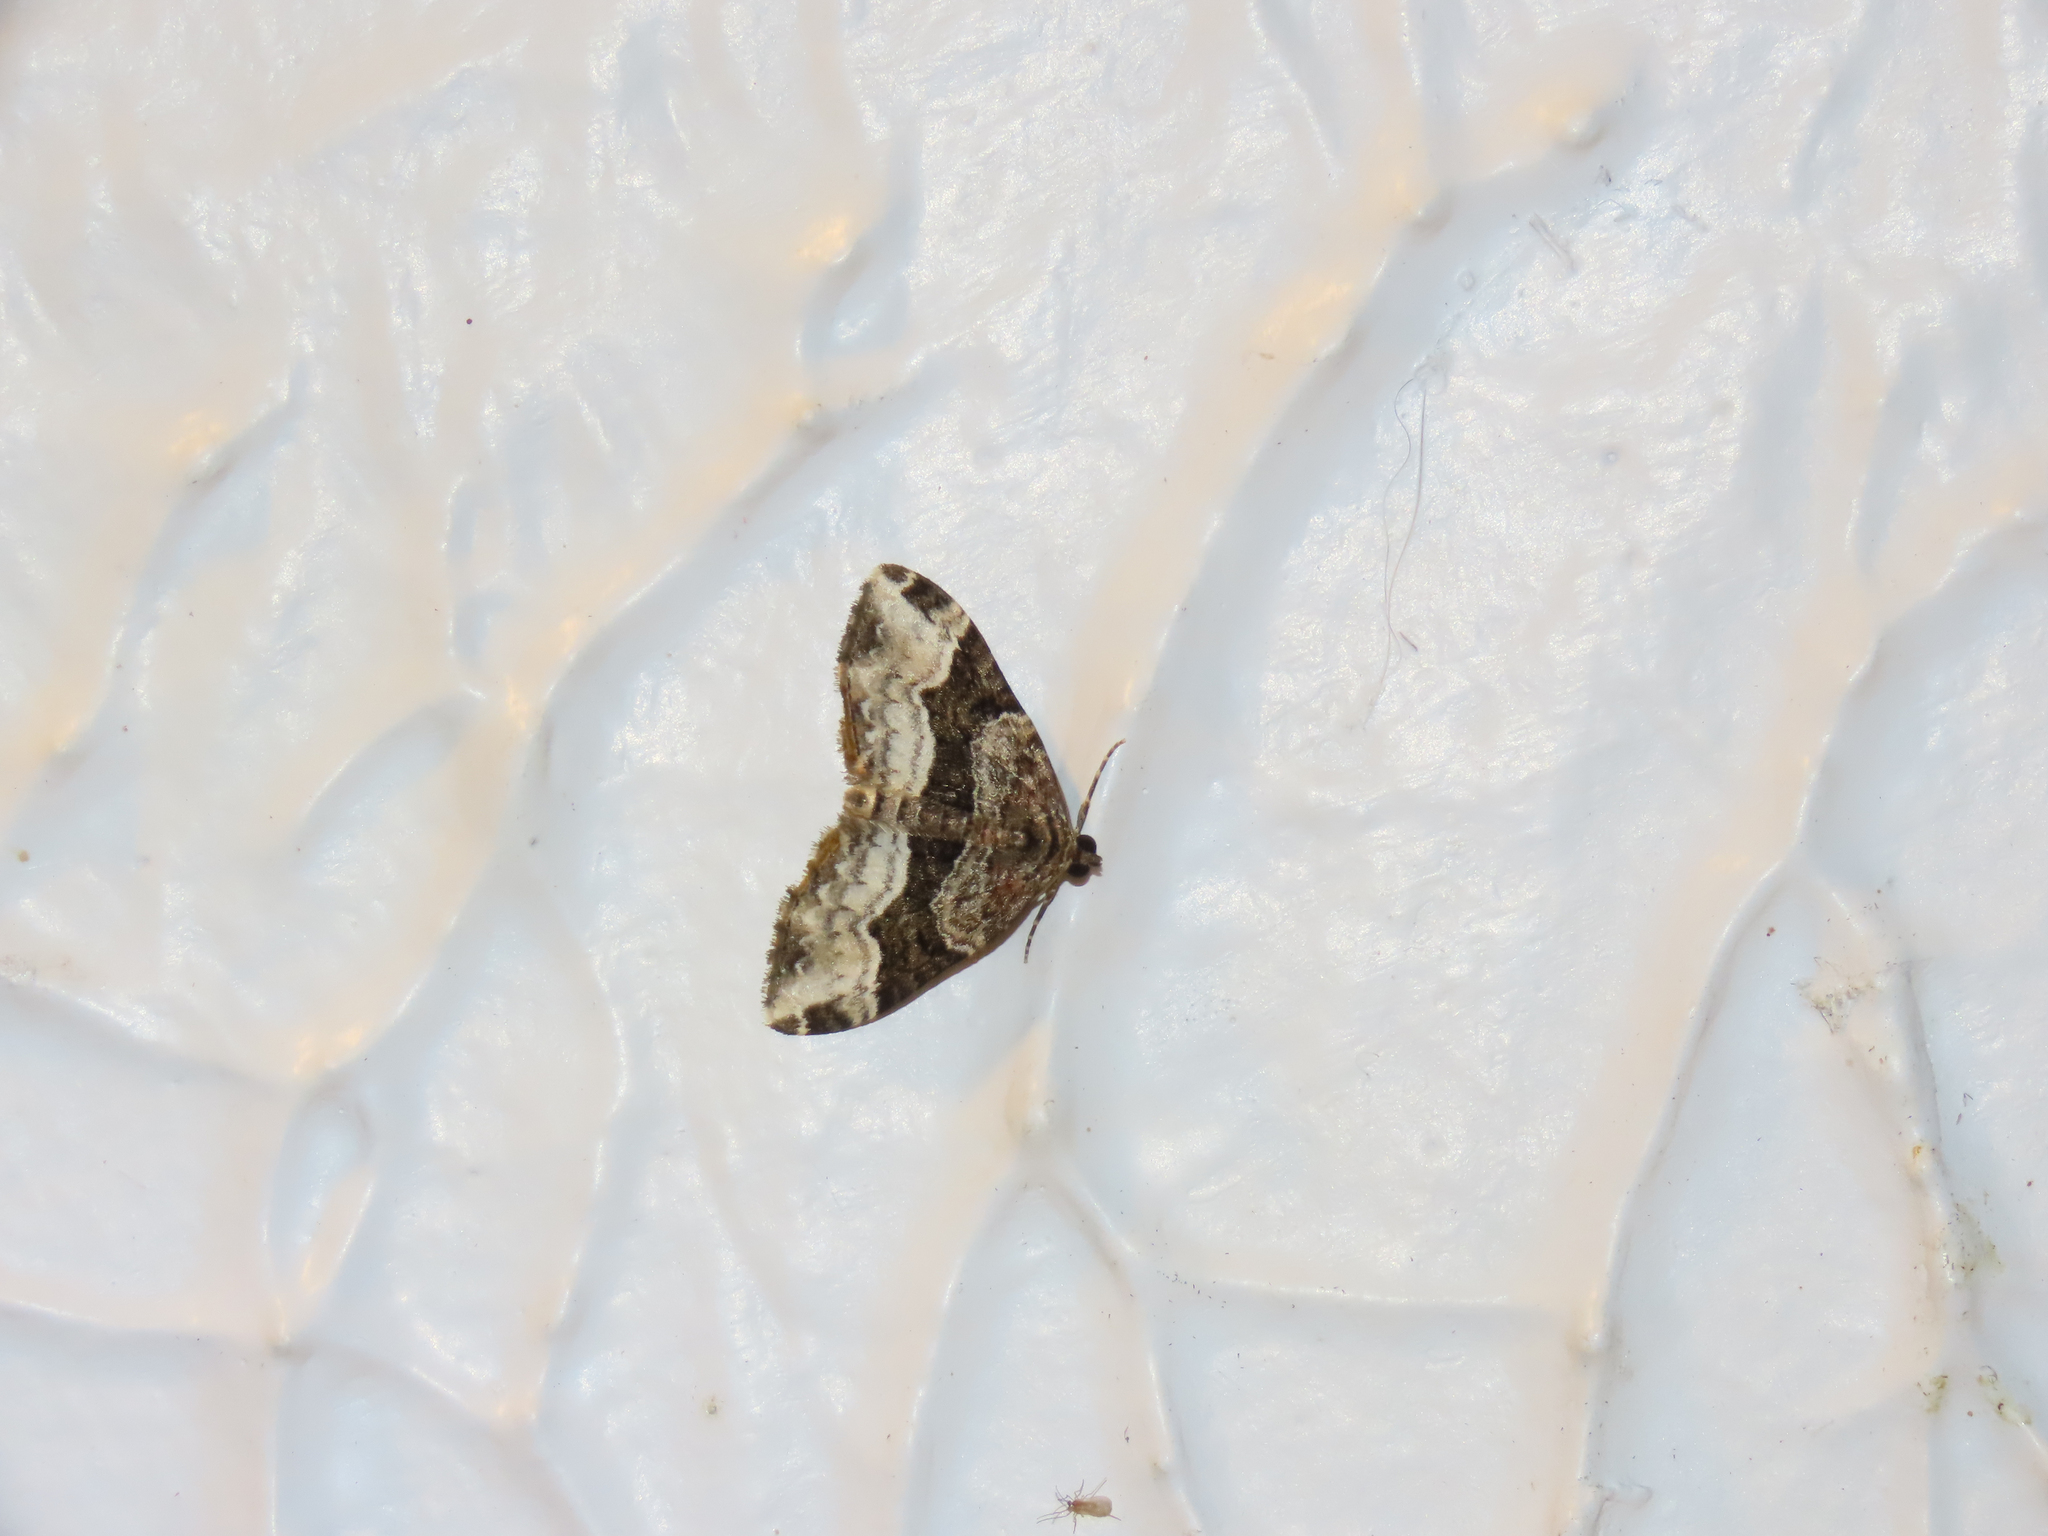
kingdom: Animalia
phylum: Arthropoda
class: Insecta
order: Lepidoptera
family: Geometridae
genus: Euphyia
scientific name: Euphyia intermediata
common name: Sharp-angled carpet
